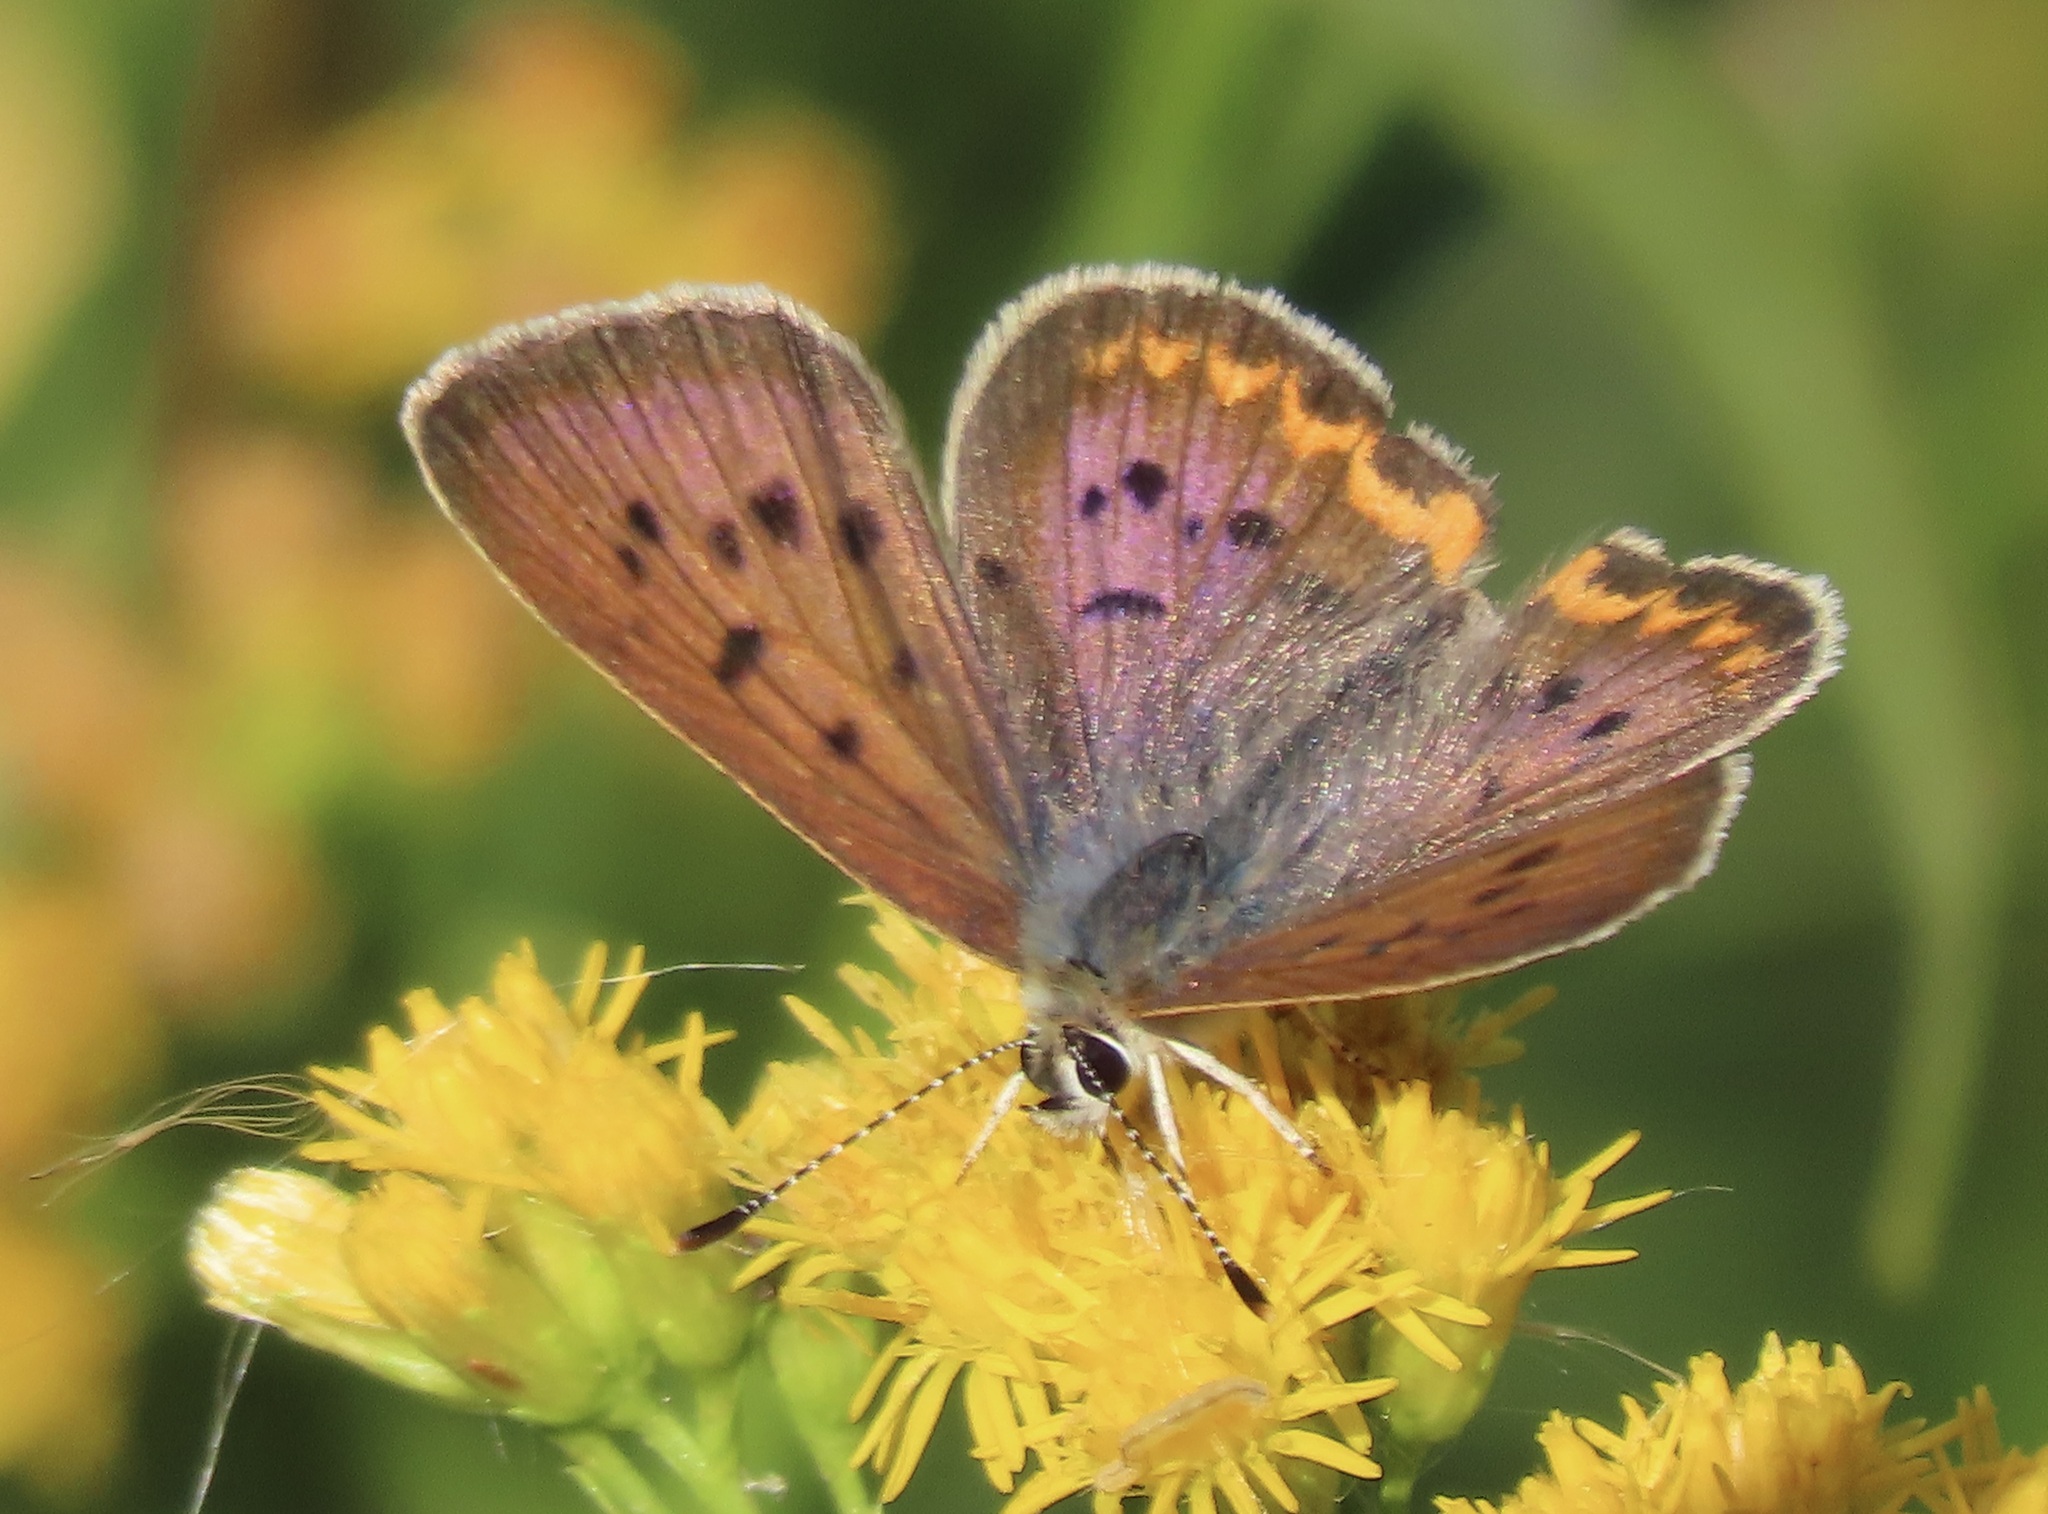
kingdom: Animalia
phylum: Arthropoda
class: Insecta
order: Lepidoptera
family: Lycaenidae
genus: Tharsalea
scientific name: Tharsalea helloides
